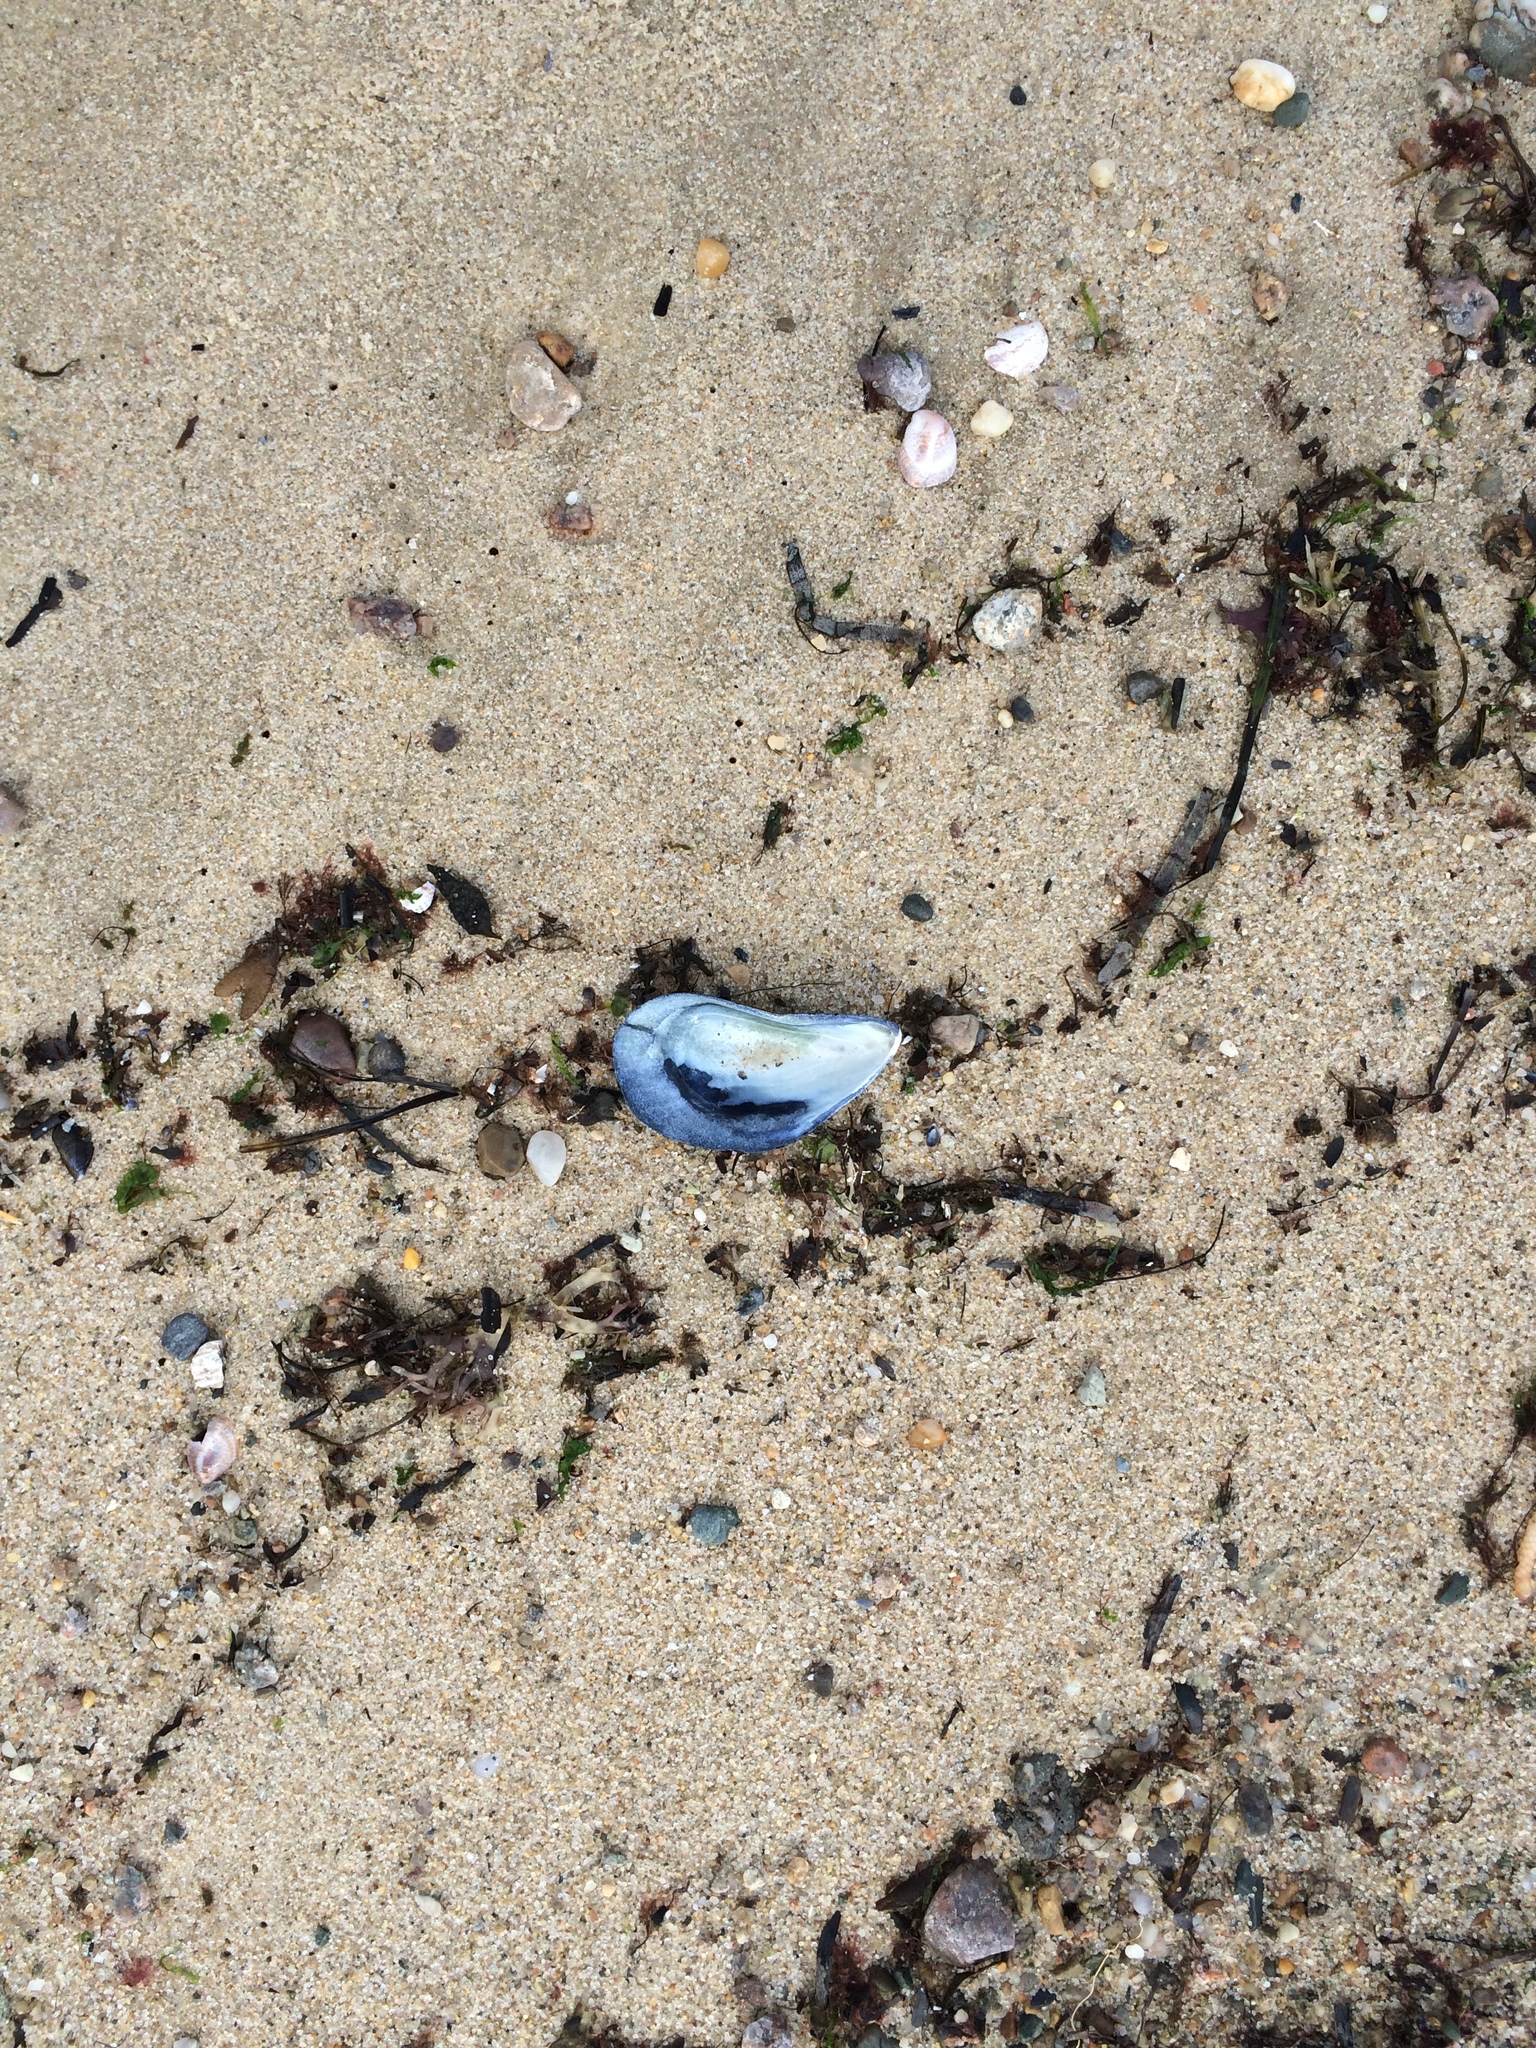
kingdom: Animalia
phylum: Mollusca
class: Bivalvia
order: Mytilida
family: Mytilidae
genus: Mytilus
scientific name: Mytilus edulis
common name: Blue mussel
